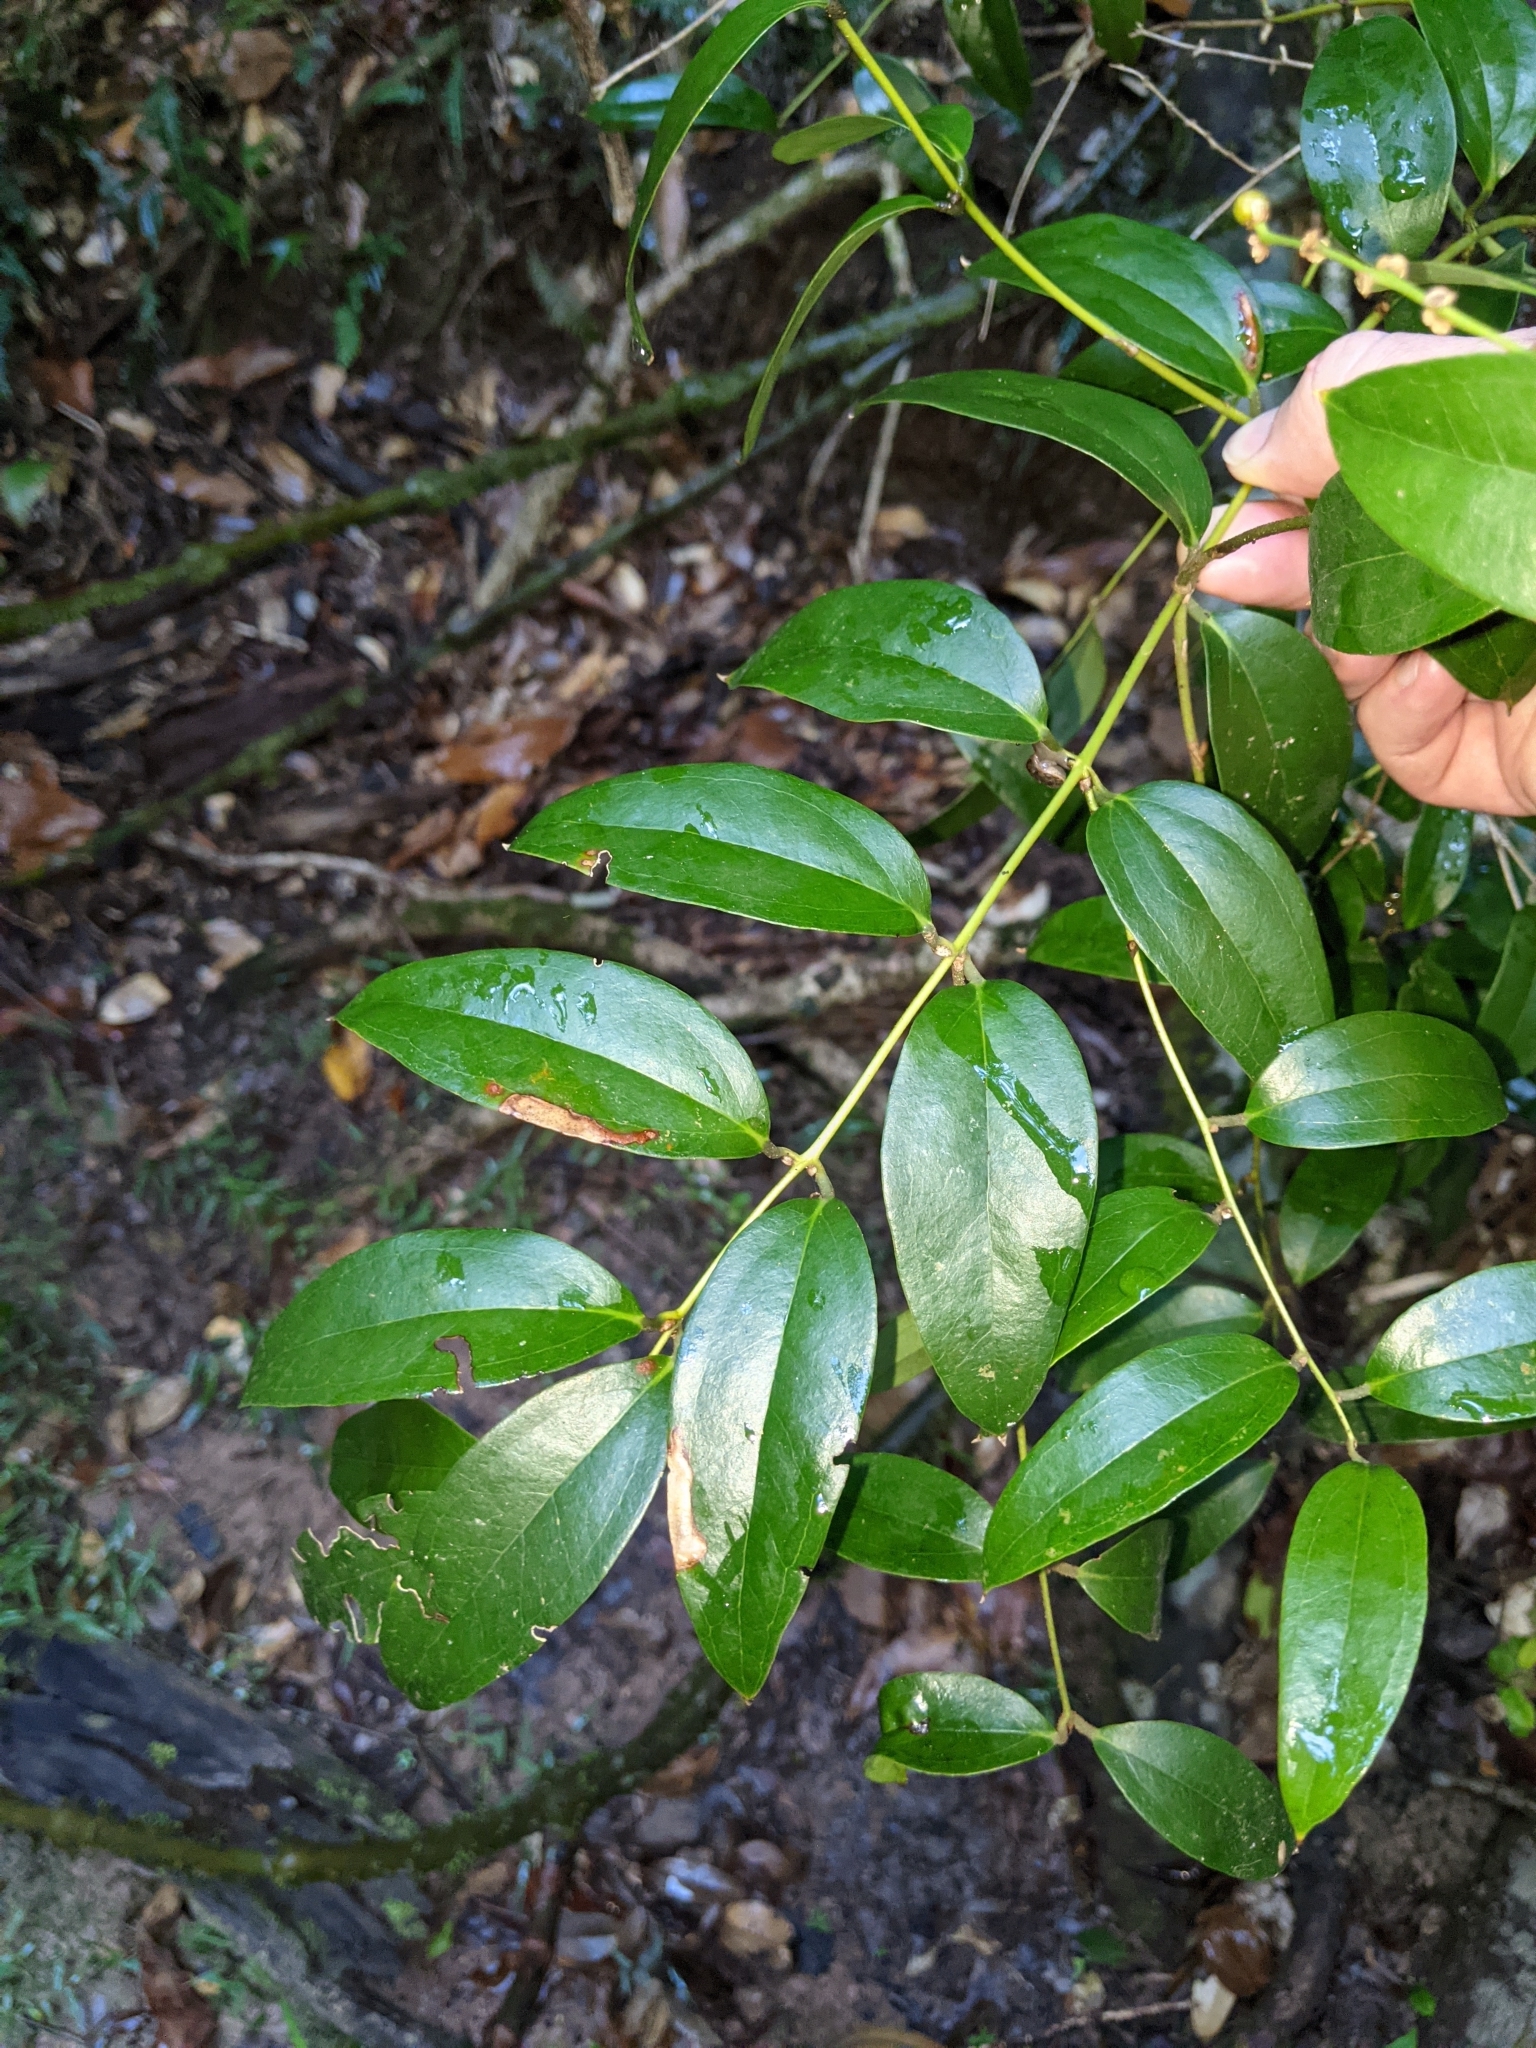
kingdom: Plantae
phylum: Tracheophyta
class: Liliopsida
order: Liliales
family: Ripogonaceae
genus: Ripogonum
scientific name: Ripogonum brevifolium
